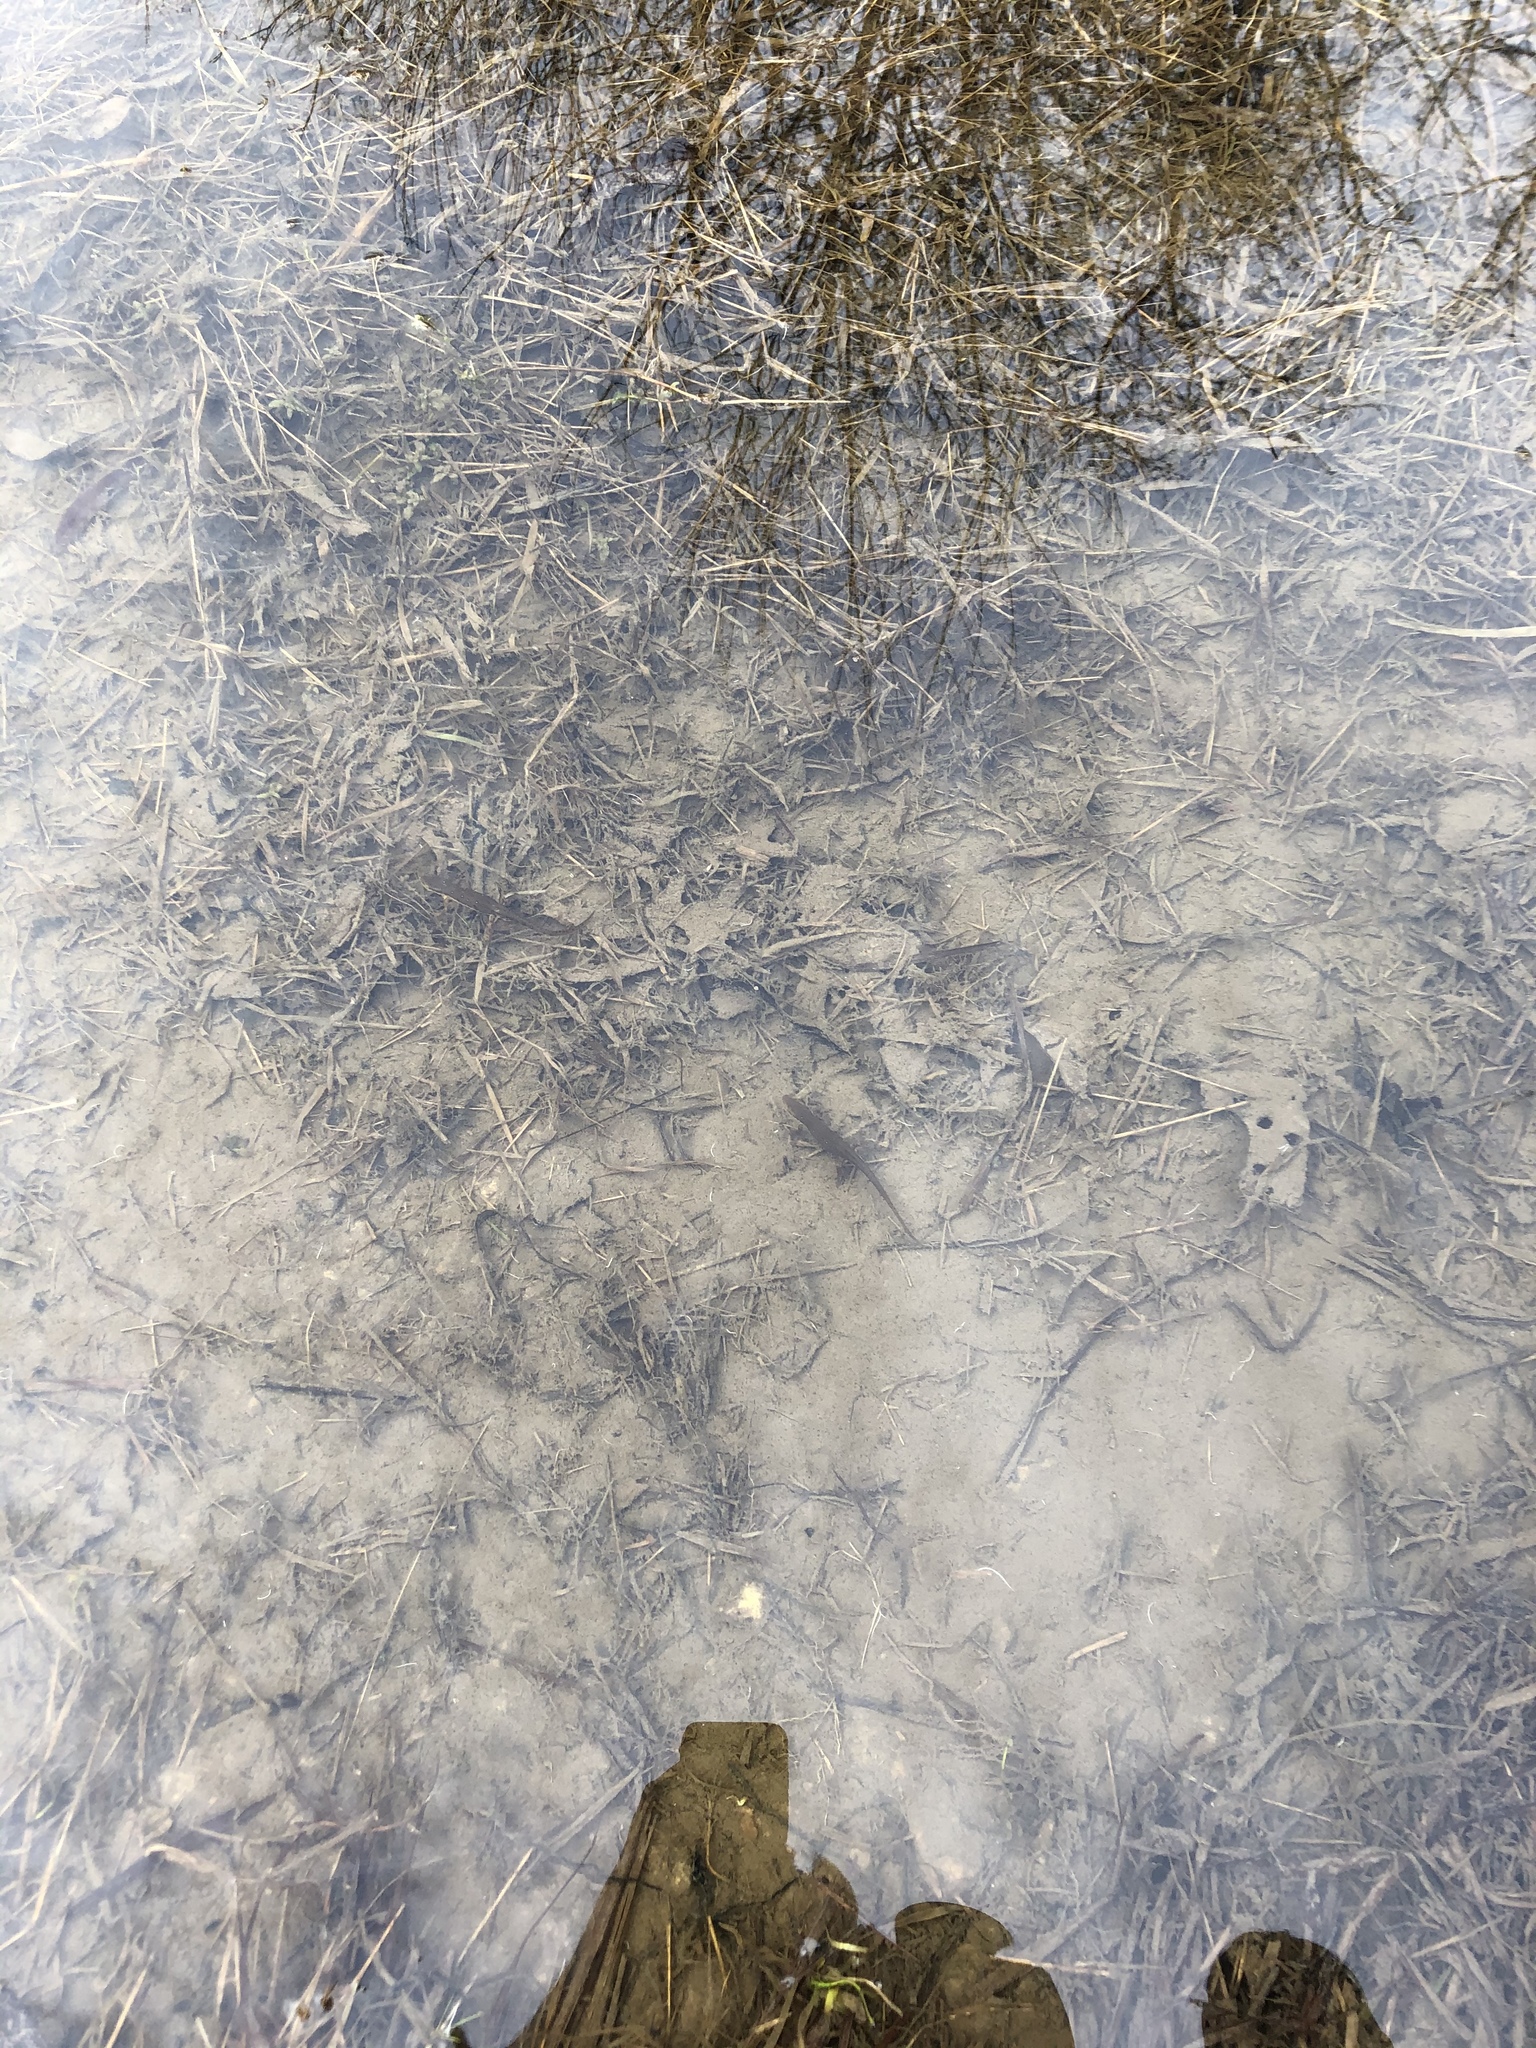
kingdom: Animalia
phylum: Chordata
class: Amphibia
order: Caudata
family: Salamandridae
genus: Notophthalmus
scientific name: Notophthalmus viridescens
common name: Eastern newt
